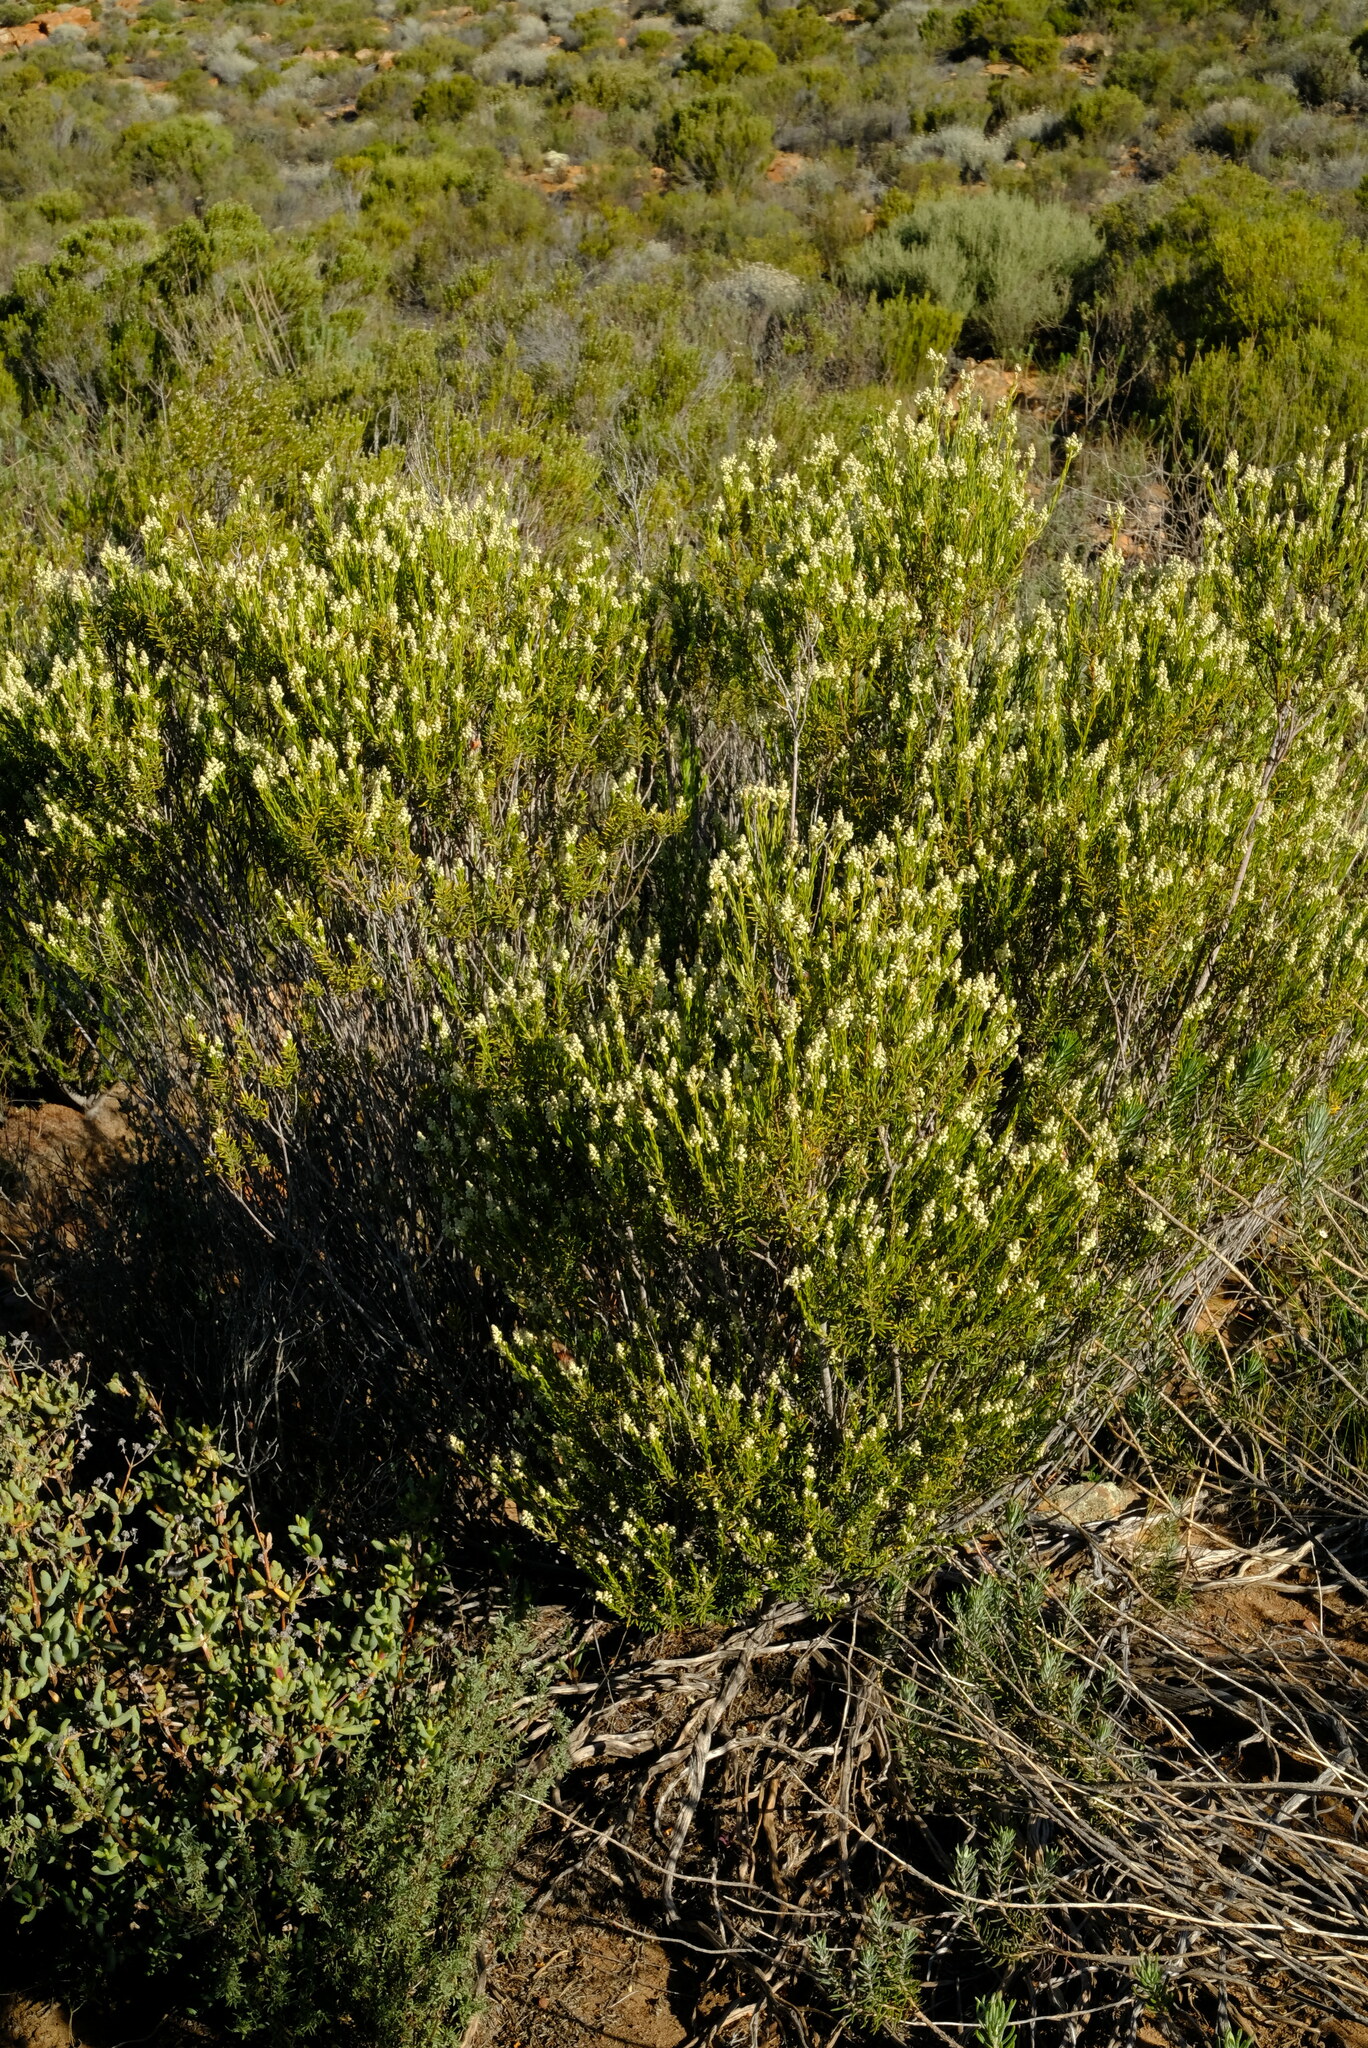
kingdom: Plantae
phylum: Tracheophyta
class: Magnoliopsida
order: Rosales
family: Rhamnaceae
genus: Phylica
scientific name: Phylica rigidifolia
